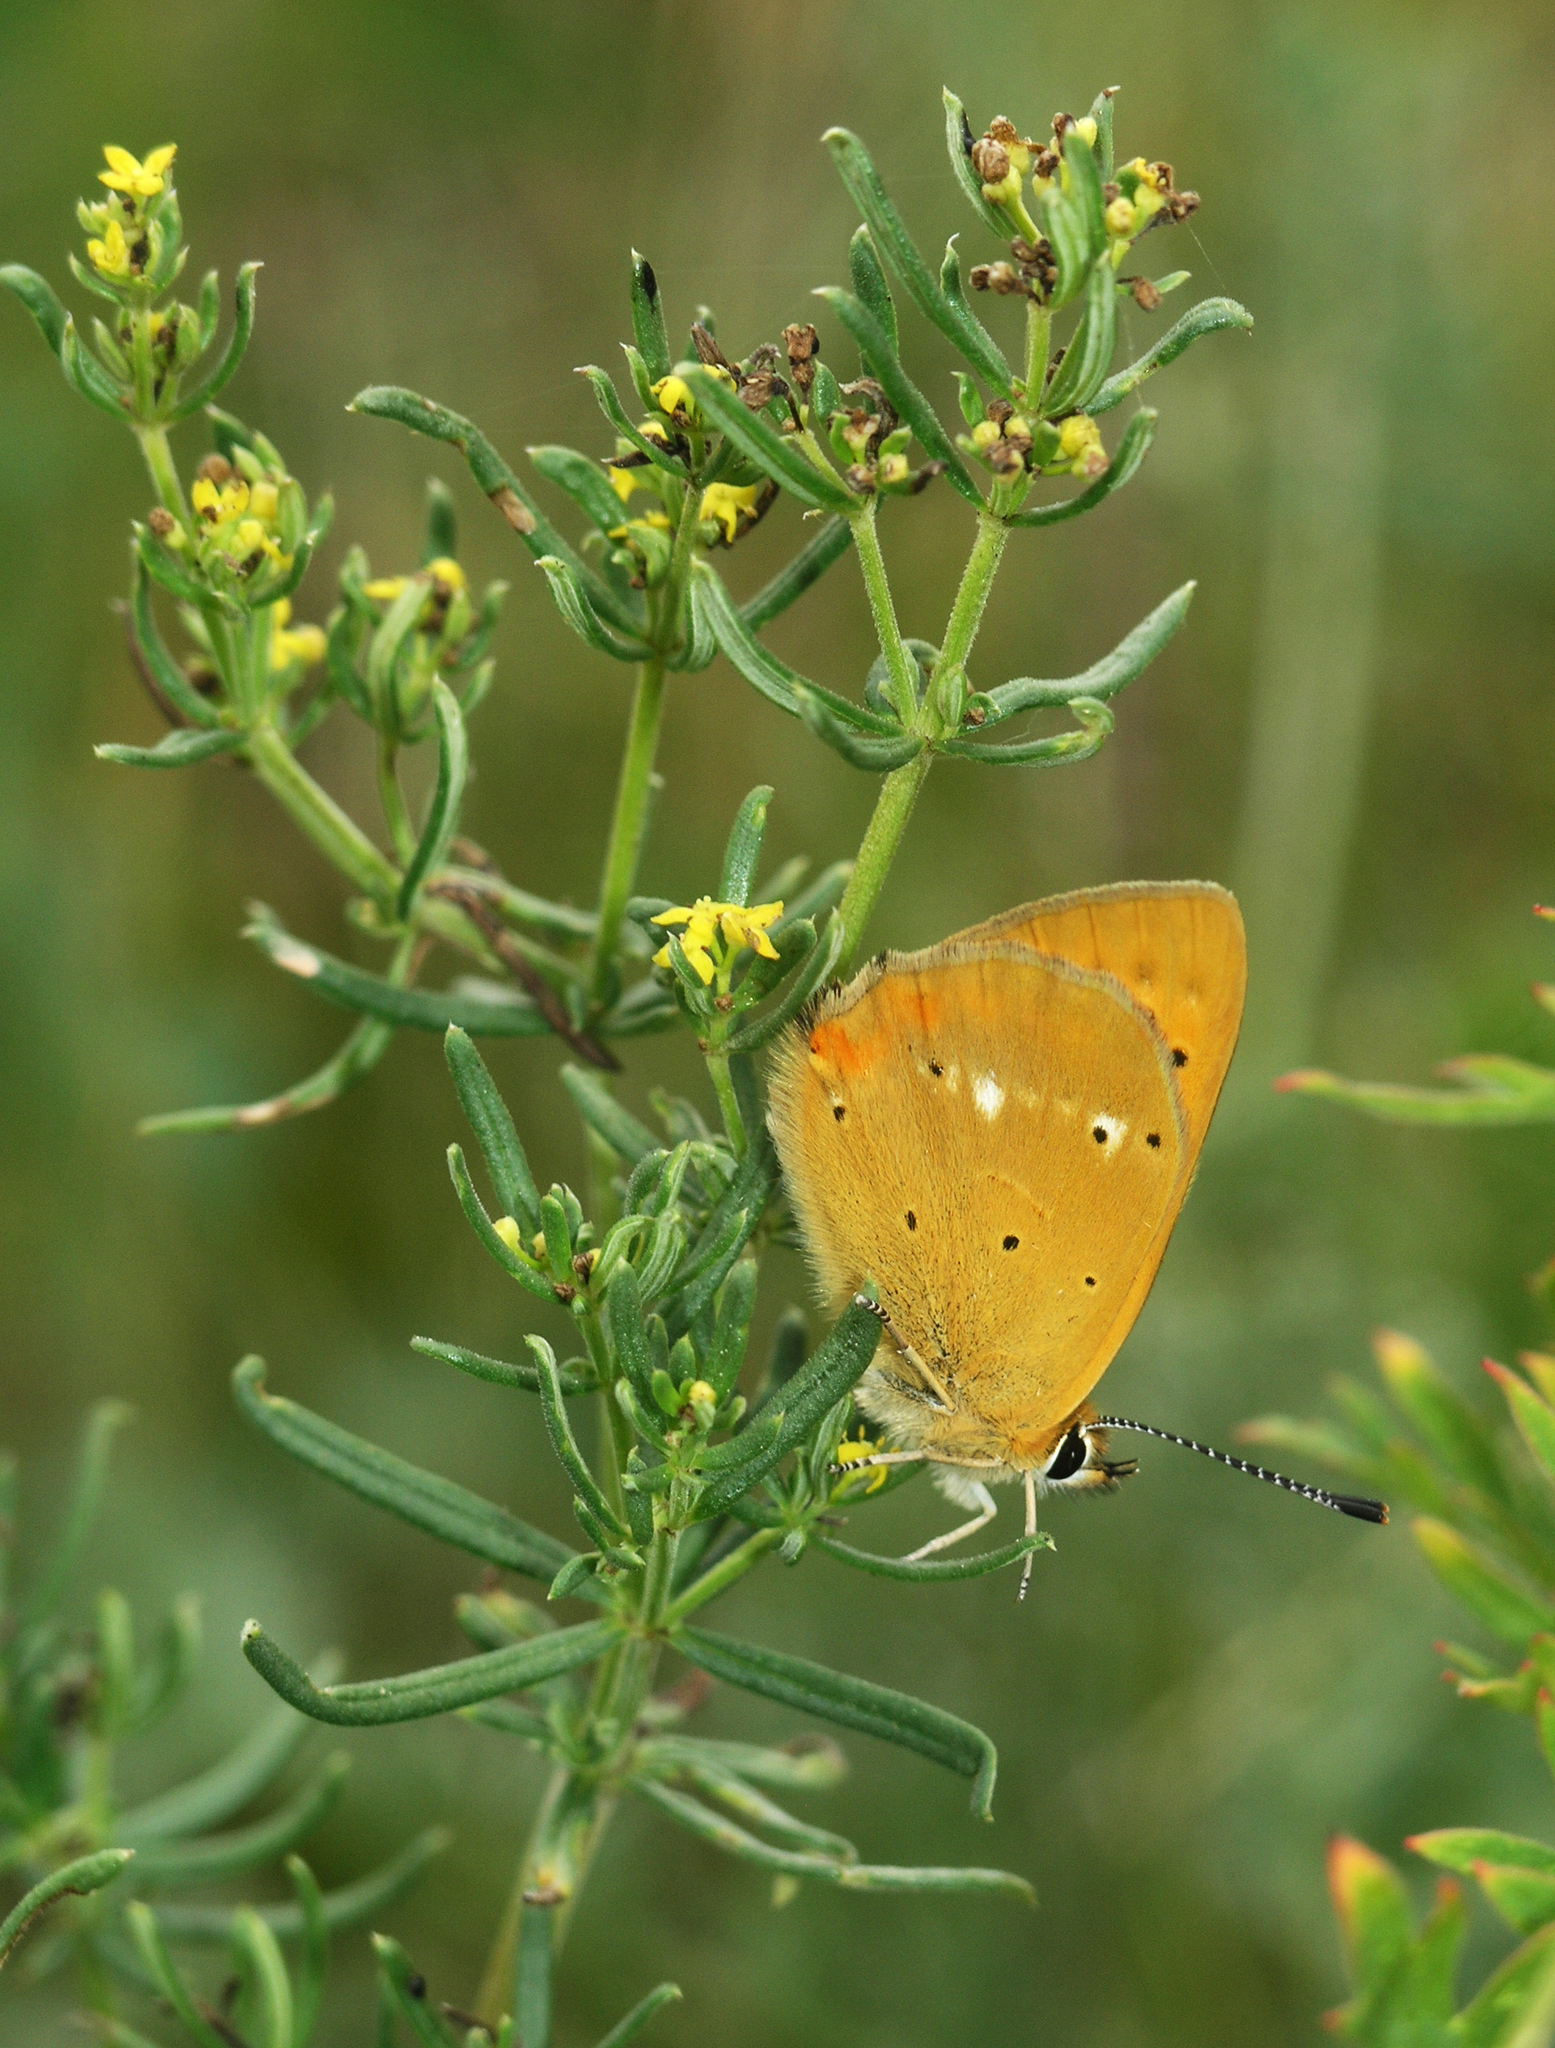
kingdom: Animalia
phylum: Arthropoda
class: Insecta
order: Lepidoptera
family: Lycaenidae
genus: Lycaena
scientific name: Lycaena virgaureae
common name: Scarce copper
